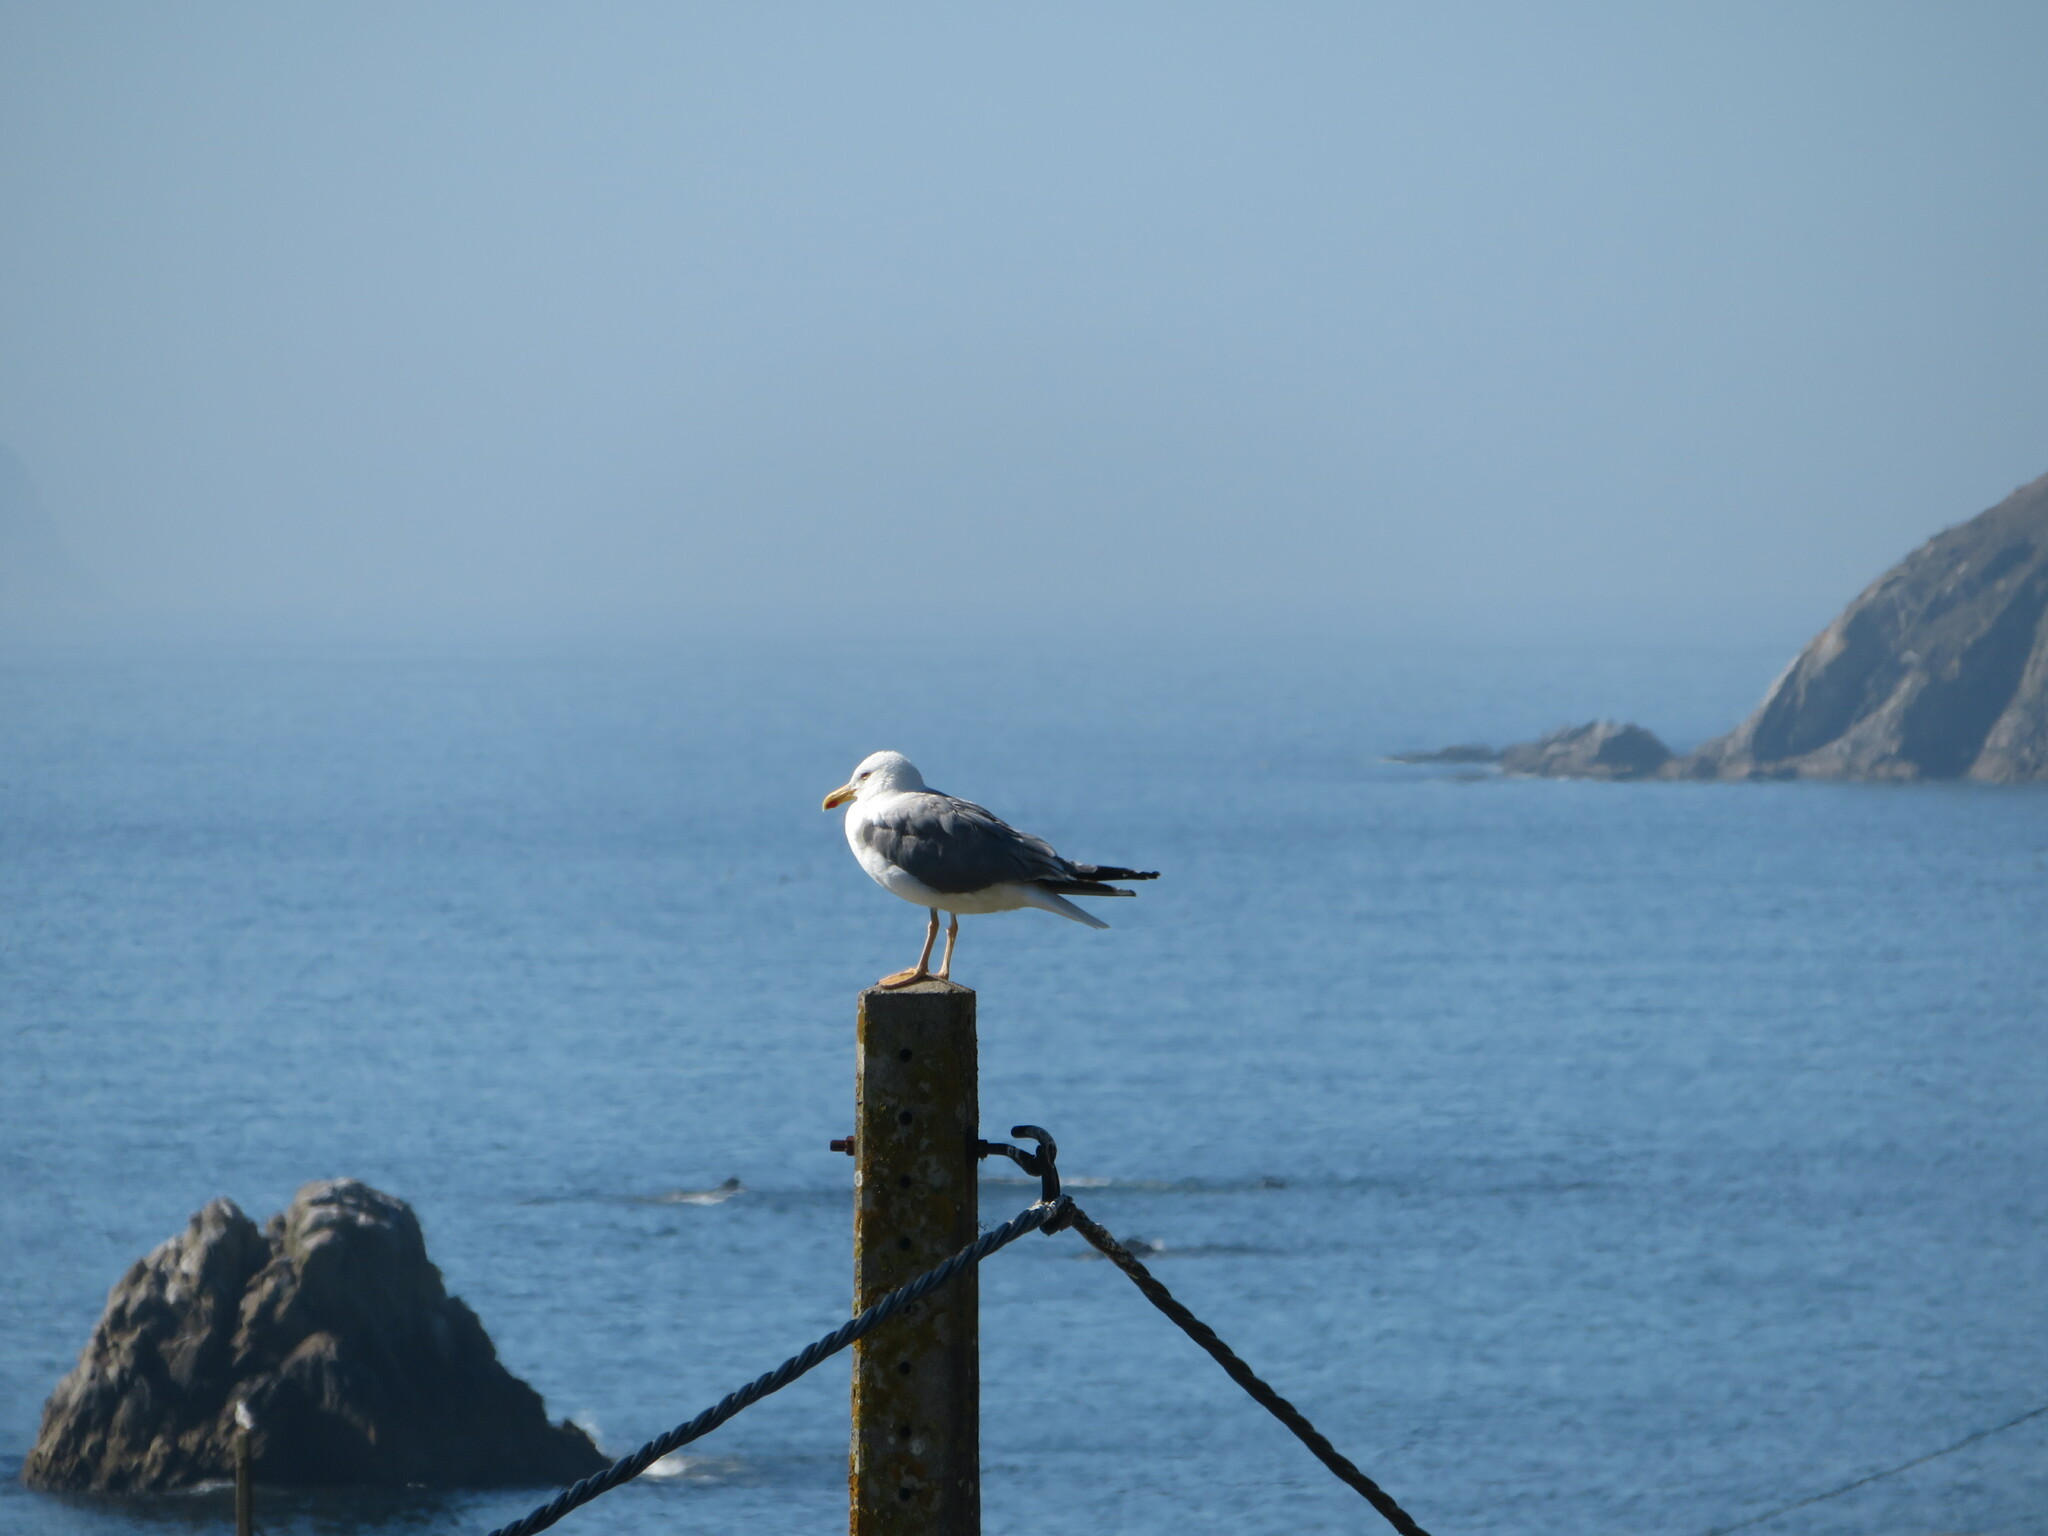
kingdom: Animalia
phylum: Chordata
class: Aves
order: Charadriiformes
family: Laridae
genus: Larus
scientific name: Larus michahellis
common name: Yellow-legged gull
